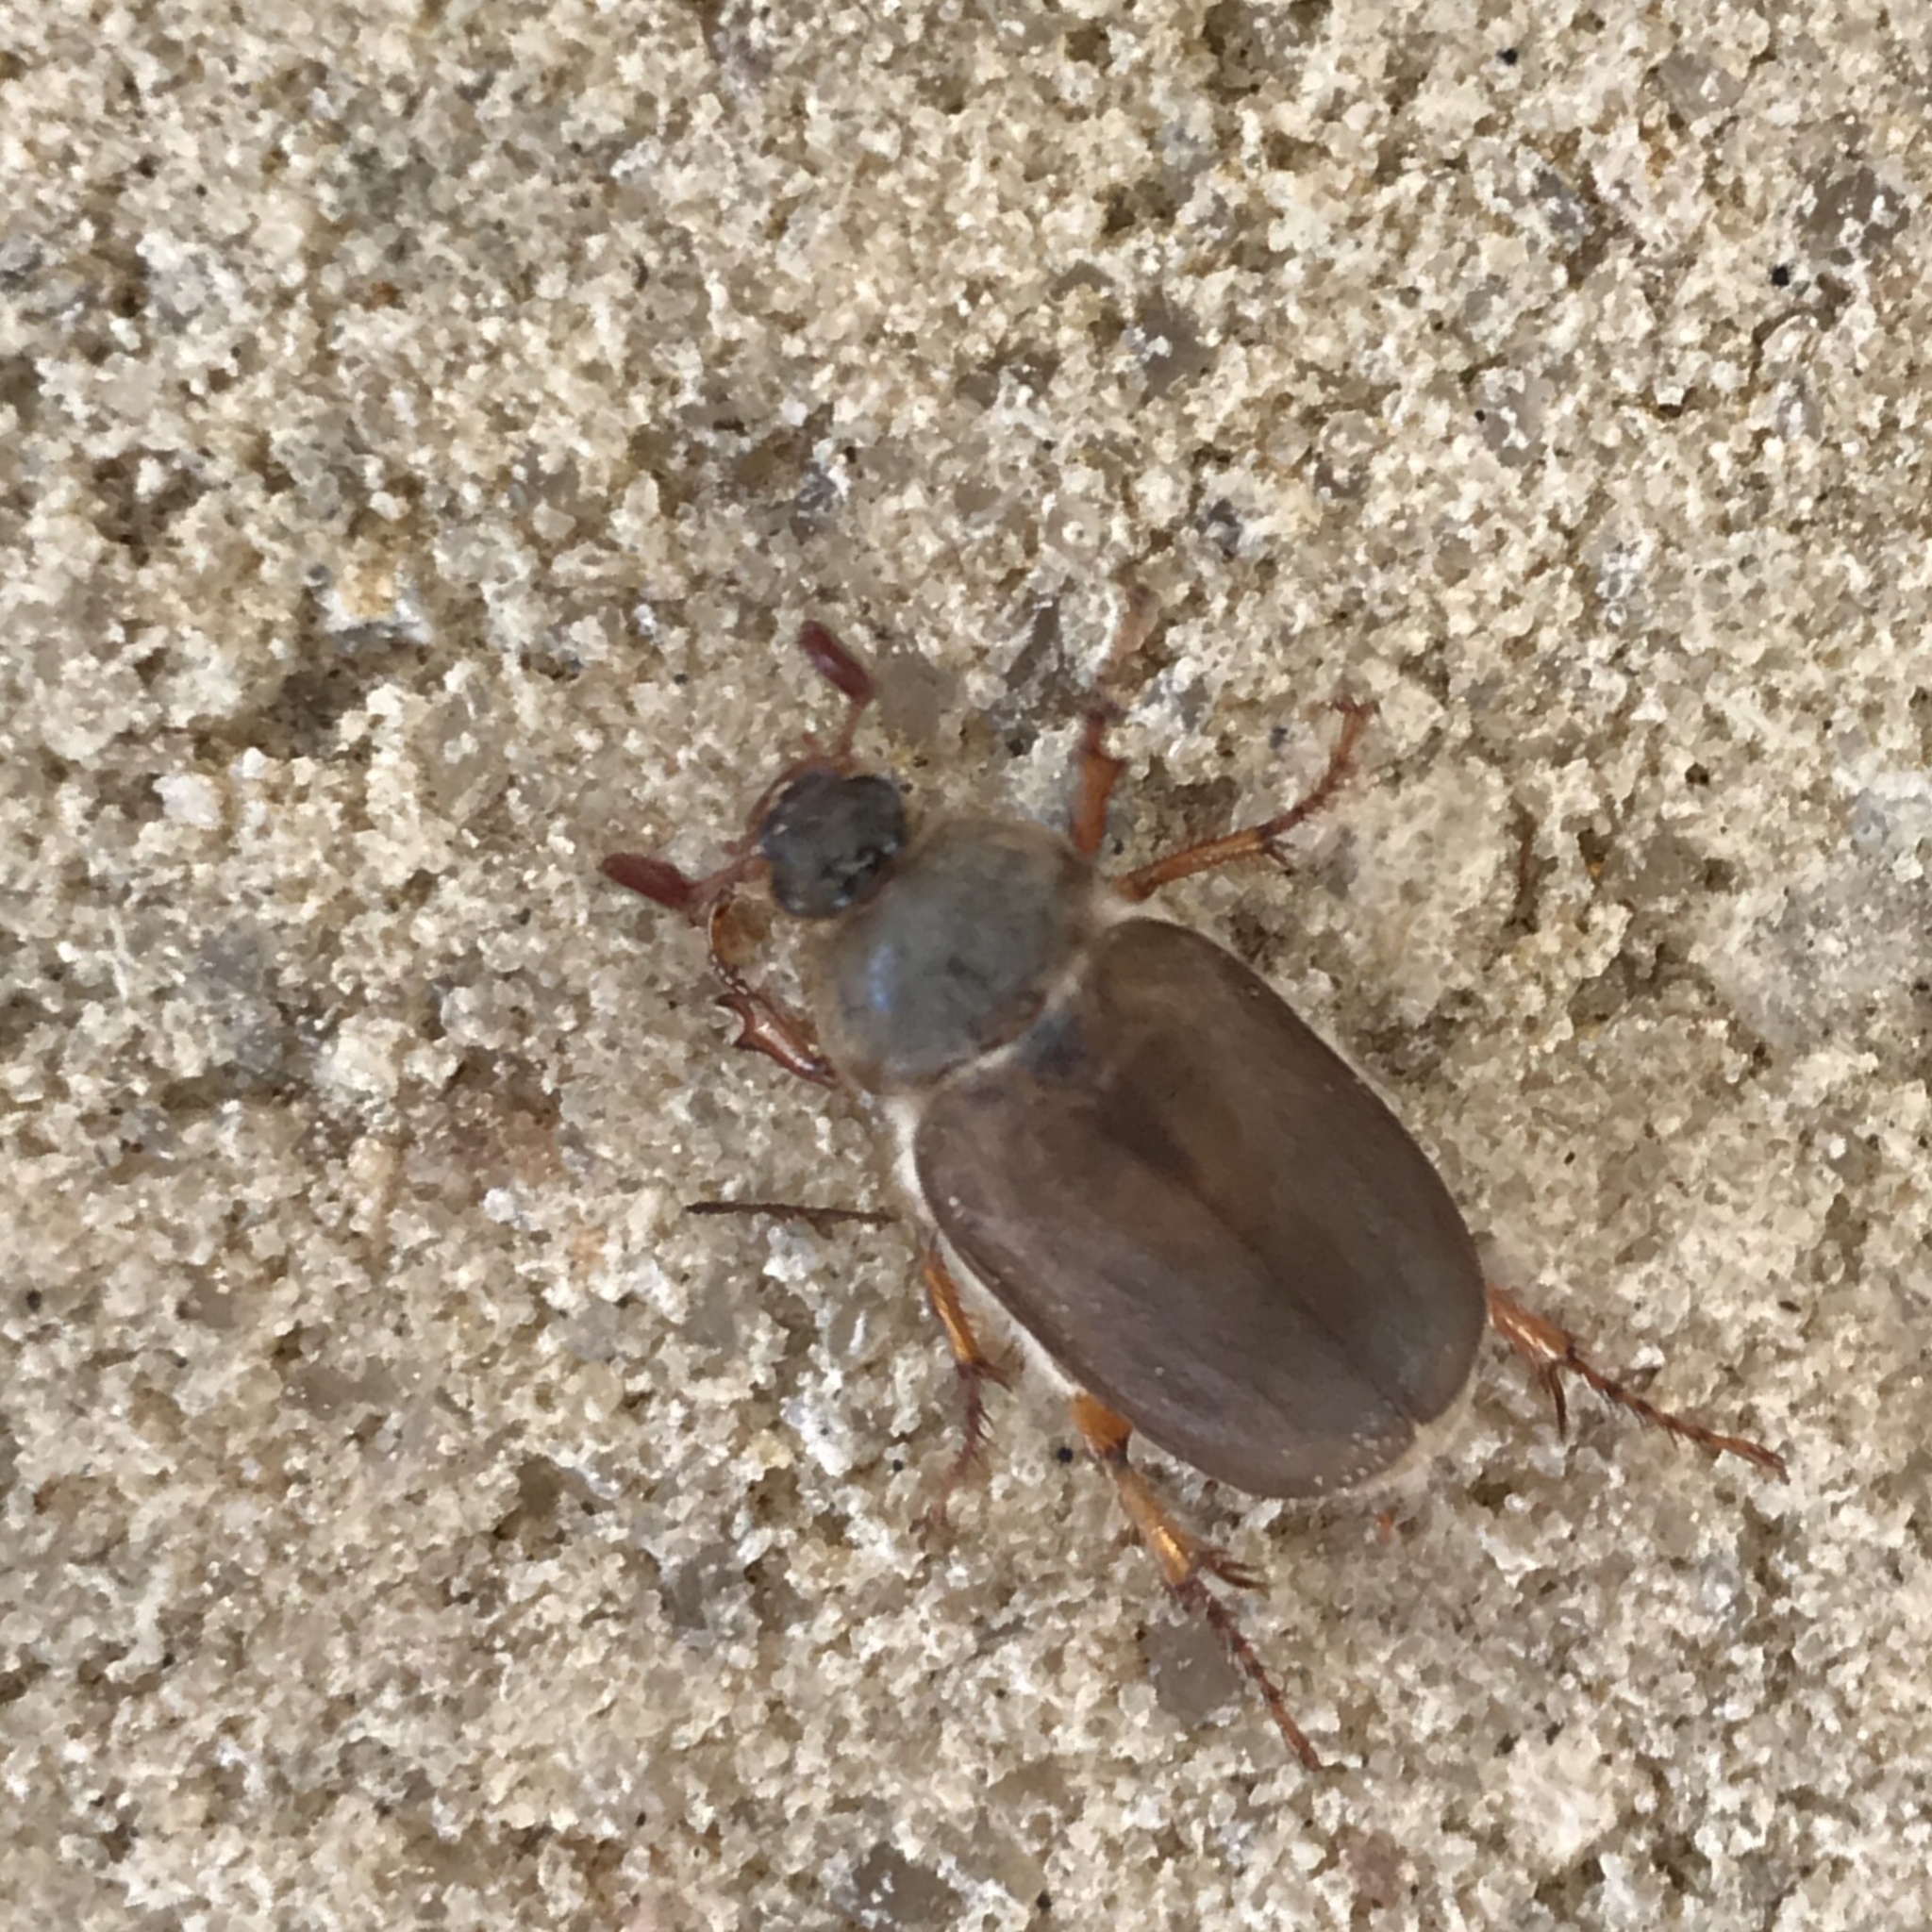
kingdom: Animalia
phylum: Arthropoda
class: Insecta
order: Coleoptera
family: Scarabaeidae
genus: Hypotrichia
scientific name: Hypotrichia spissipes
